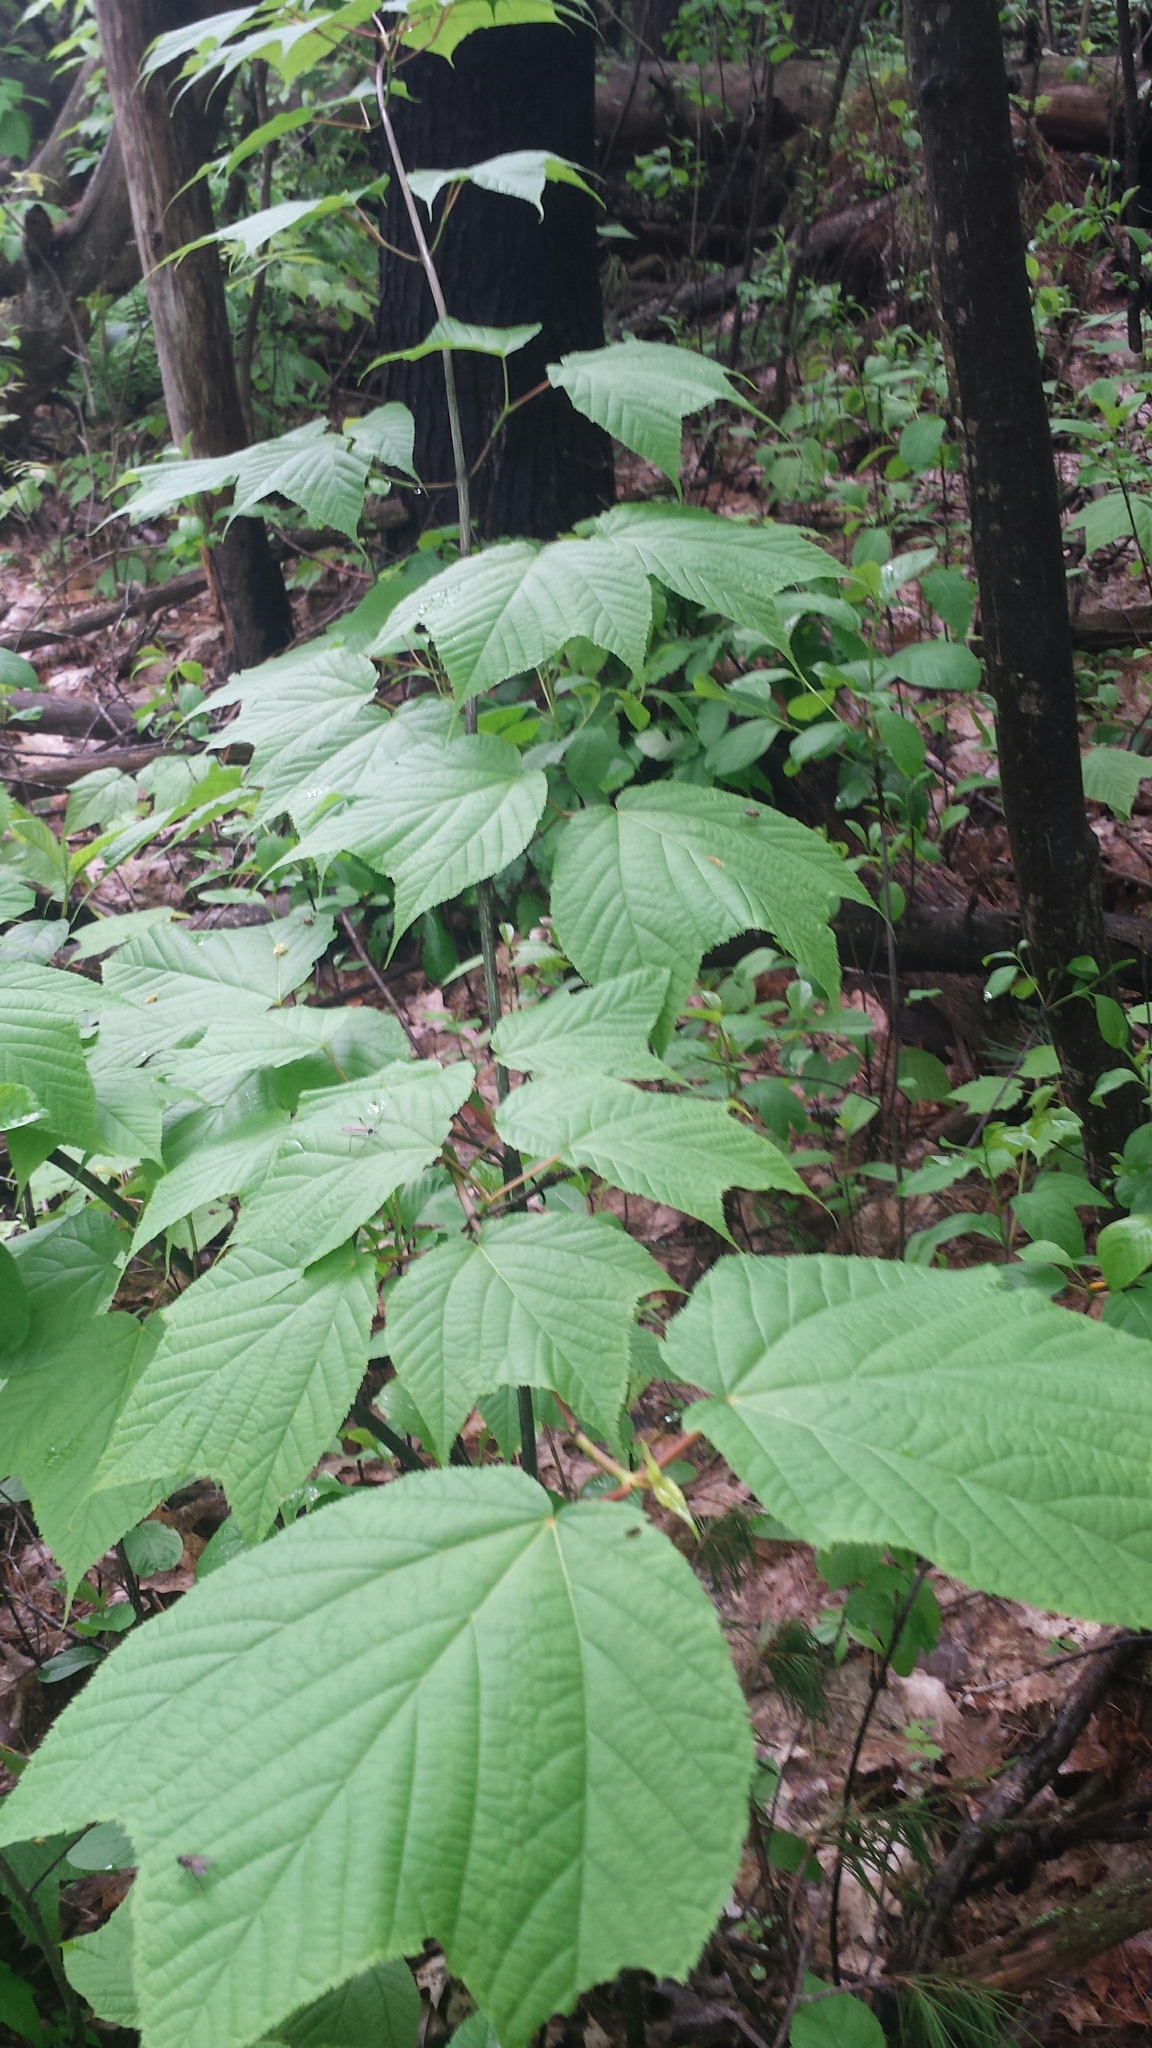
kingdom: Plantae
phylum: Tracheophyta
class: Magnoliopsida
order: Sapindales
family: Sapindaceae
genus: Acer
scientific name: Acer pensylvanicum
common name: Moosewood
